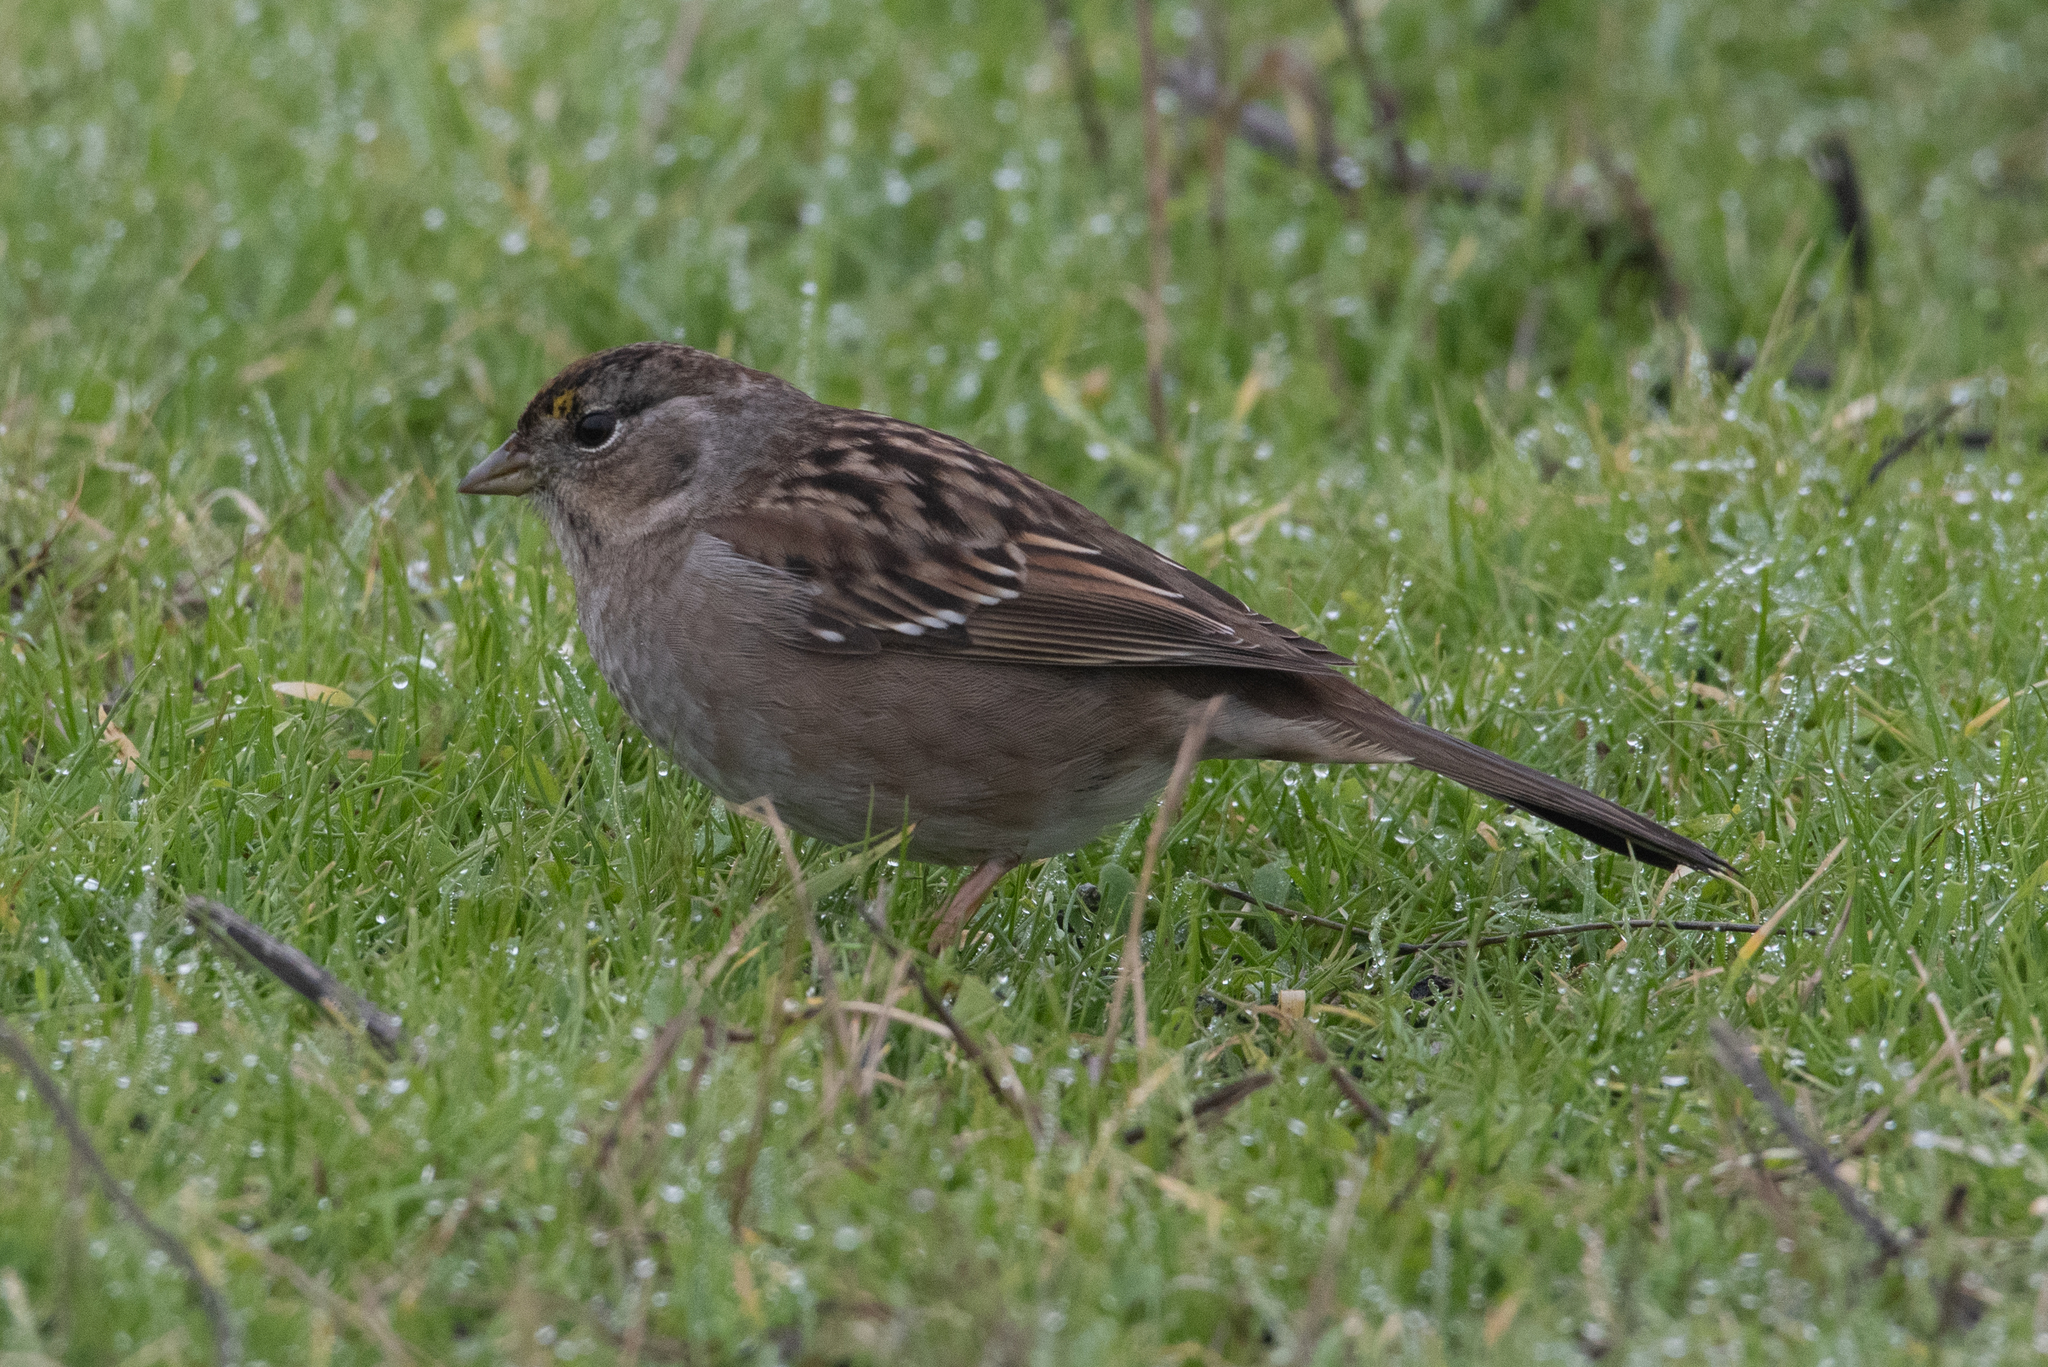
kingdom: Animalia
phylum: Chordata
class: Aves
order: Passeriformes
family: Passerellidae
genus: Zonotrichia
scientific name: Zonotrichia atricapilla
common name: Golden-crowned sparrow
